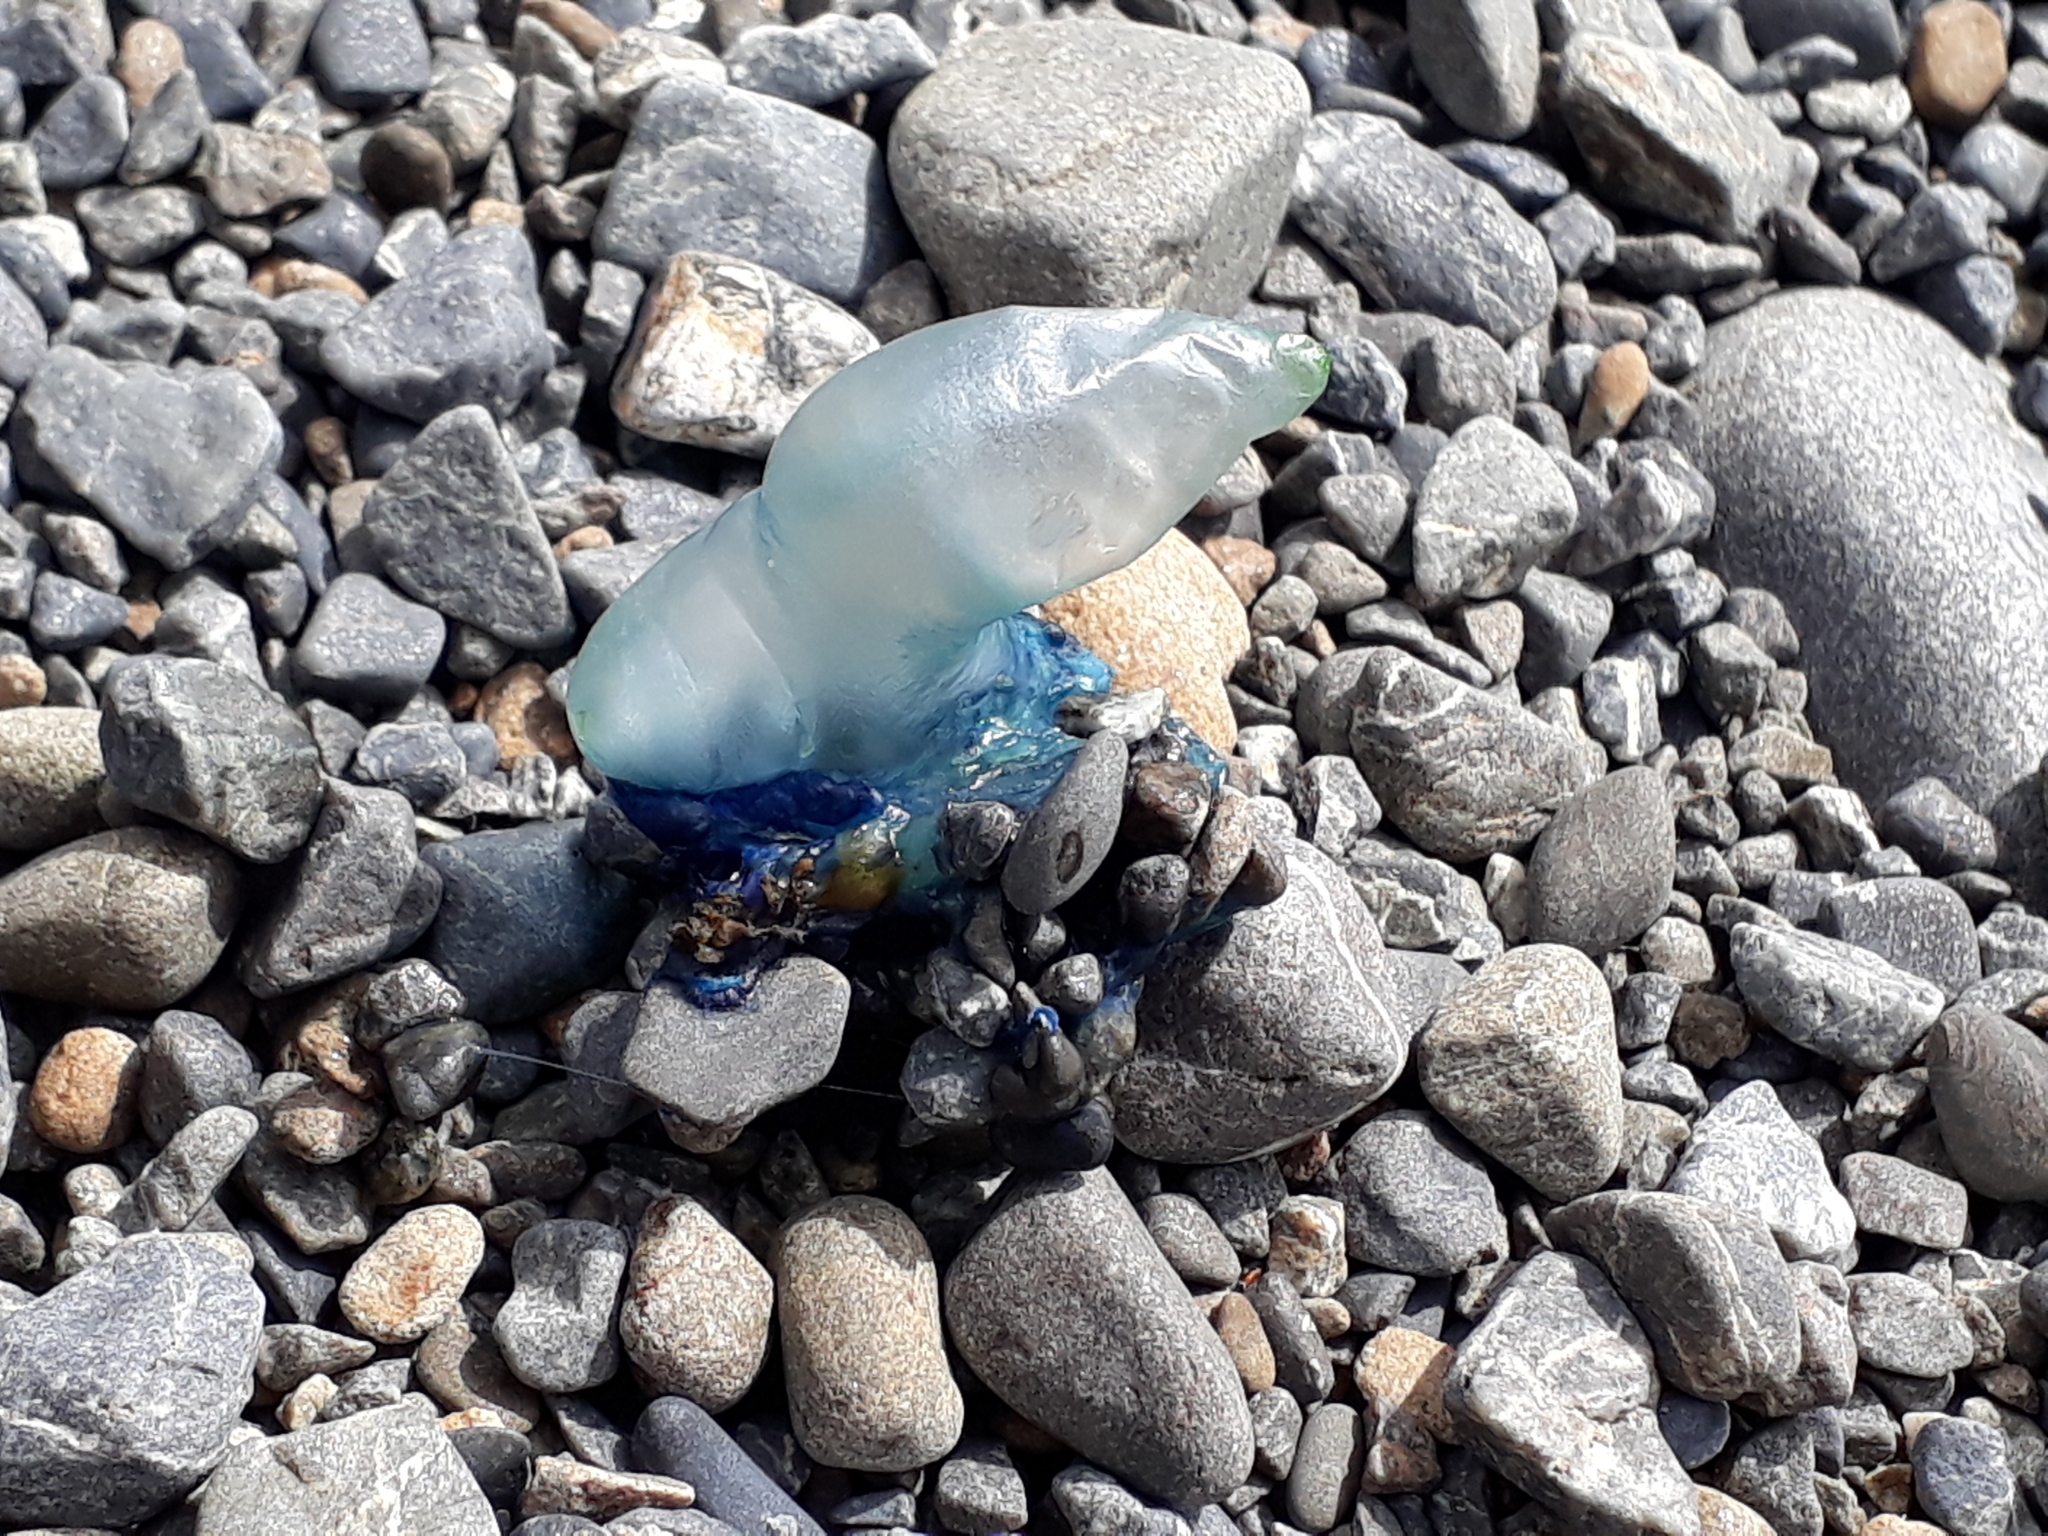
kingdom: Animalia
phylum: Cnidaria
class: Hydrozoa
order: Siphonophorae
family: Physaliidae
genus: Physalia
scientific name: Physalia physalis
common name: Portuguese man-of-war
